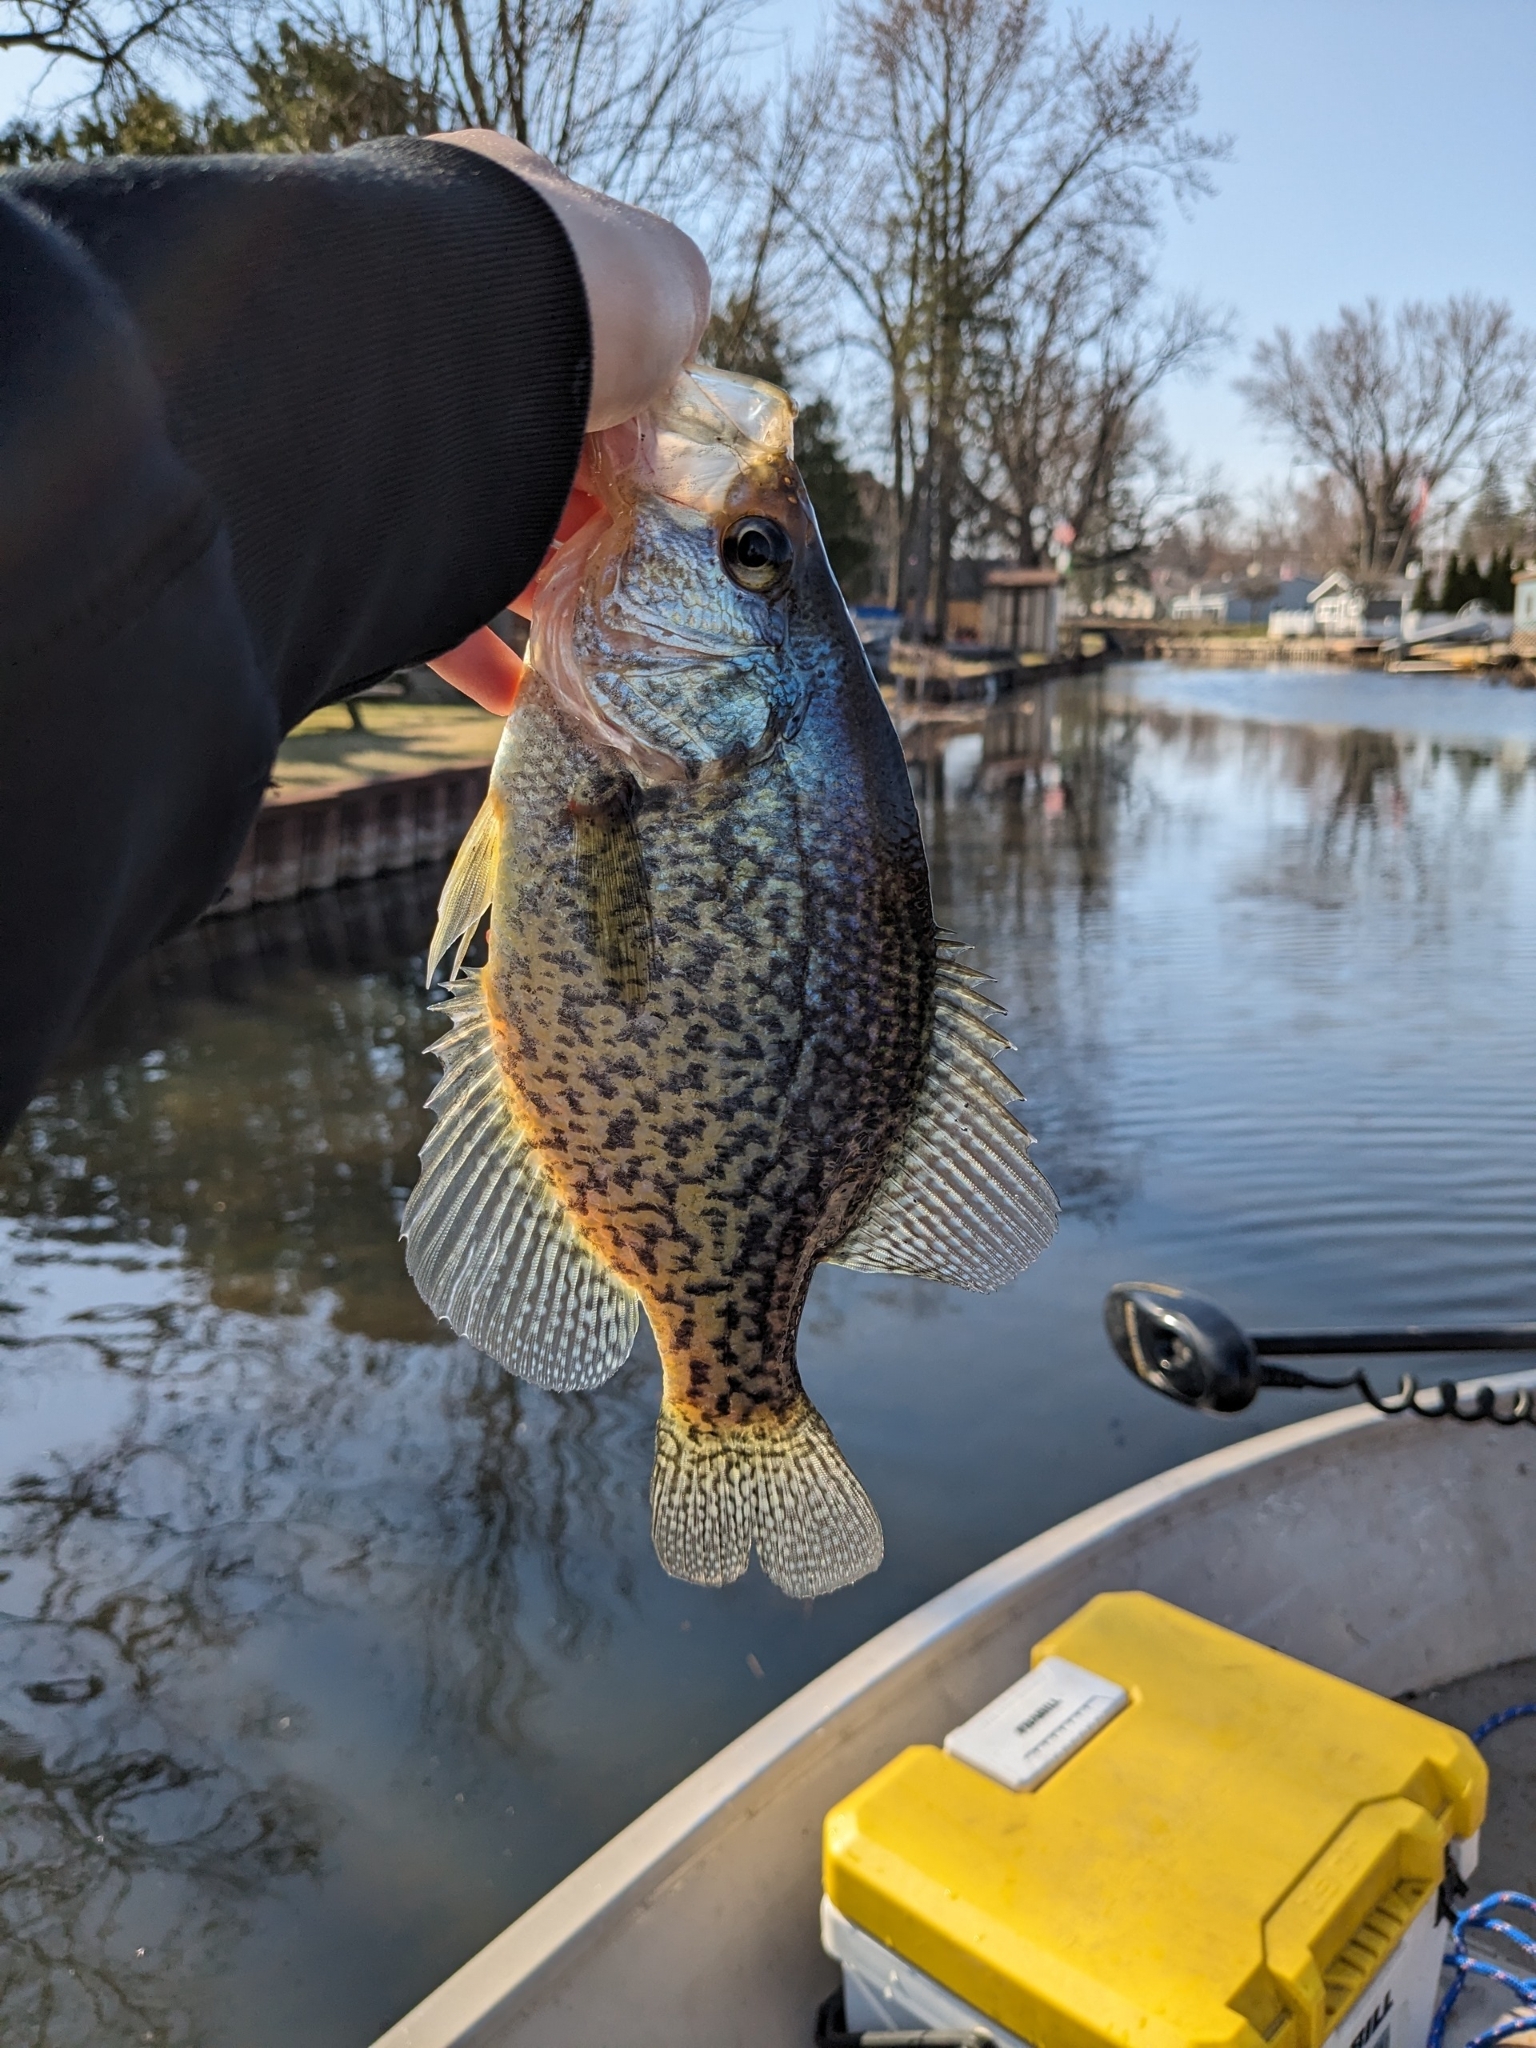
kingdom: Animalia
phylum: Chordata
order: Perciformes
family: Centrarchidae
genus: Pomoxis
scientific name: Pomoxis nigromaculatus
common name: Black crappie
